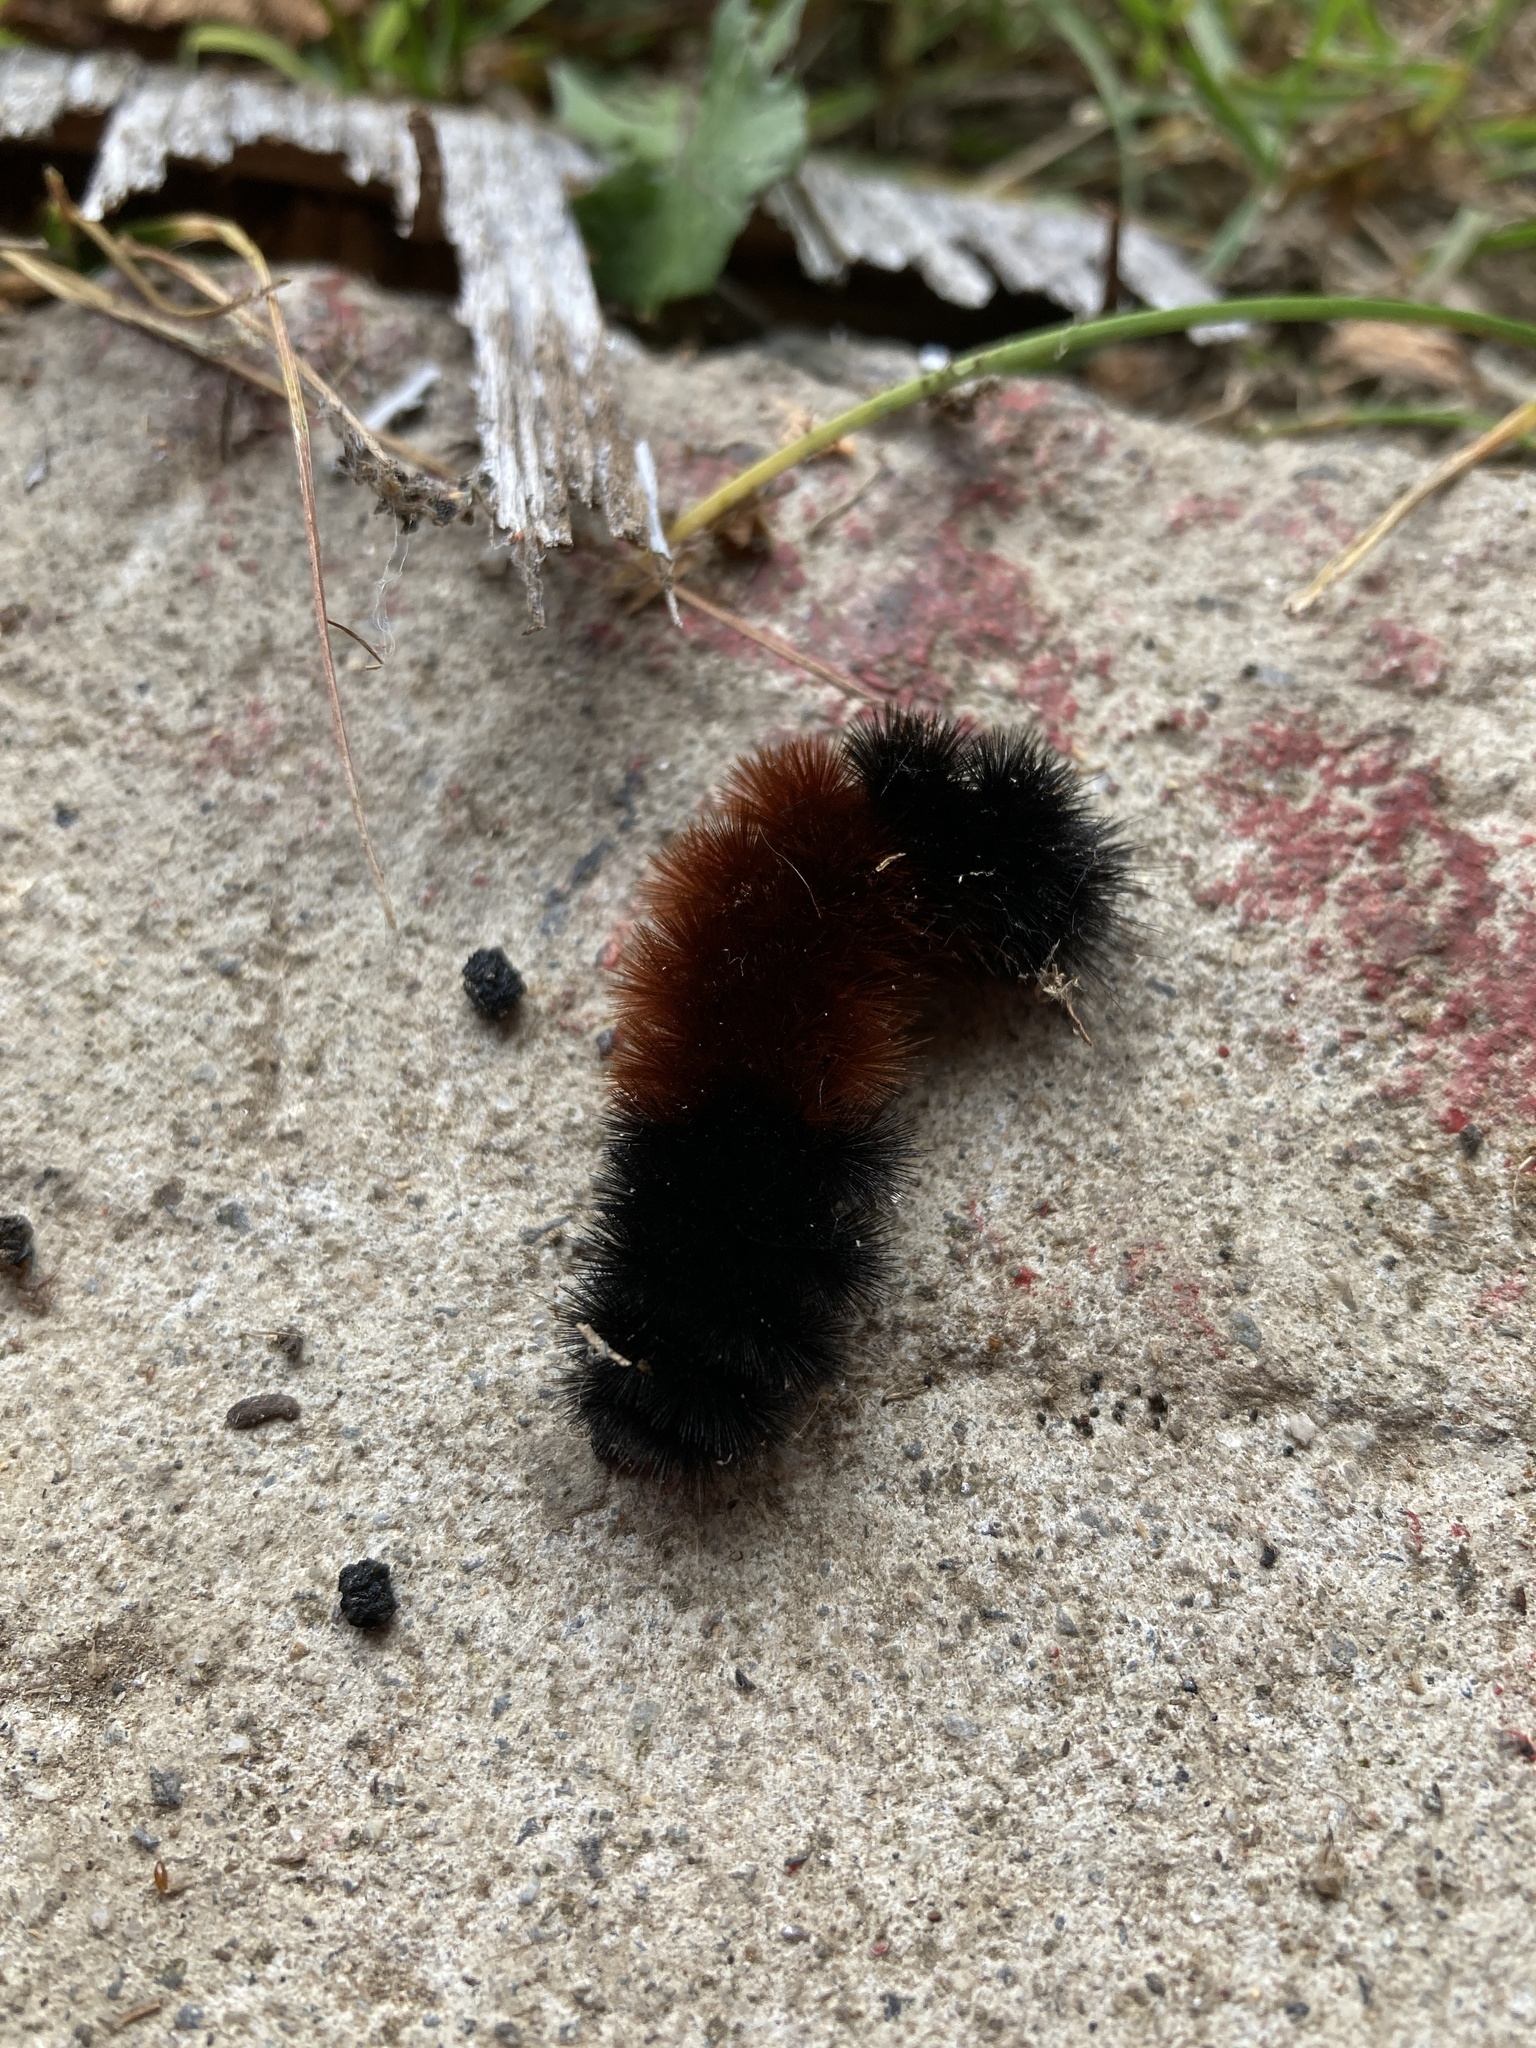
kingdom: Animalia
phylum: Arthropoda
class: Insecta
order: Lepidoptera
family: Erebidae
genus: Pyrrharctia
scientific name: Pyrrharctia isabella
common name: Isabella tiger moth
